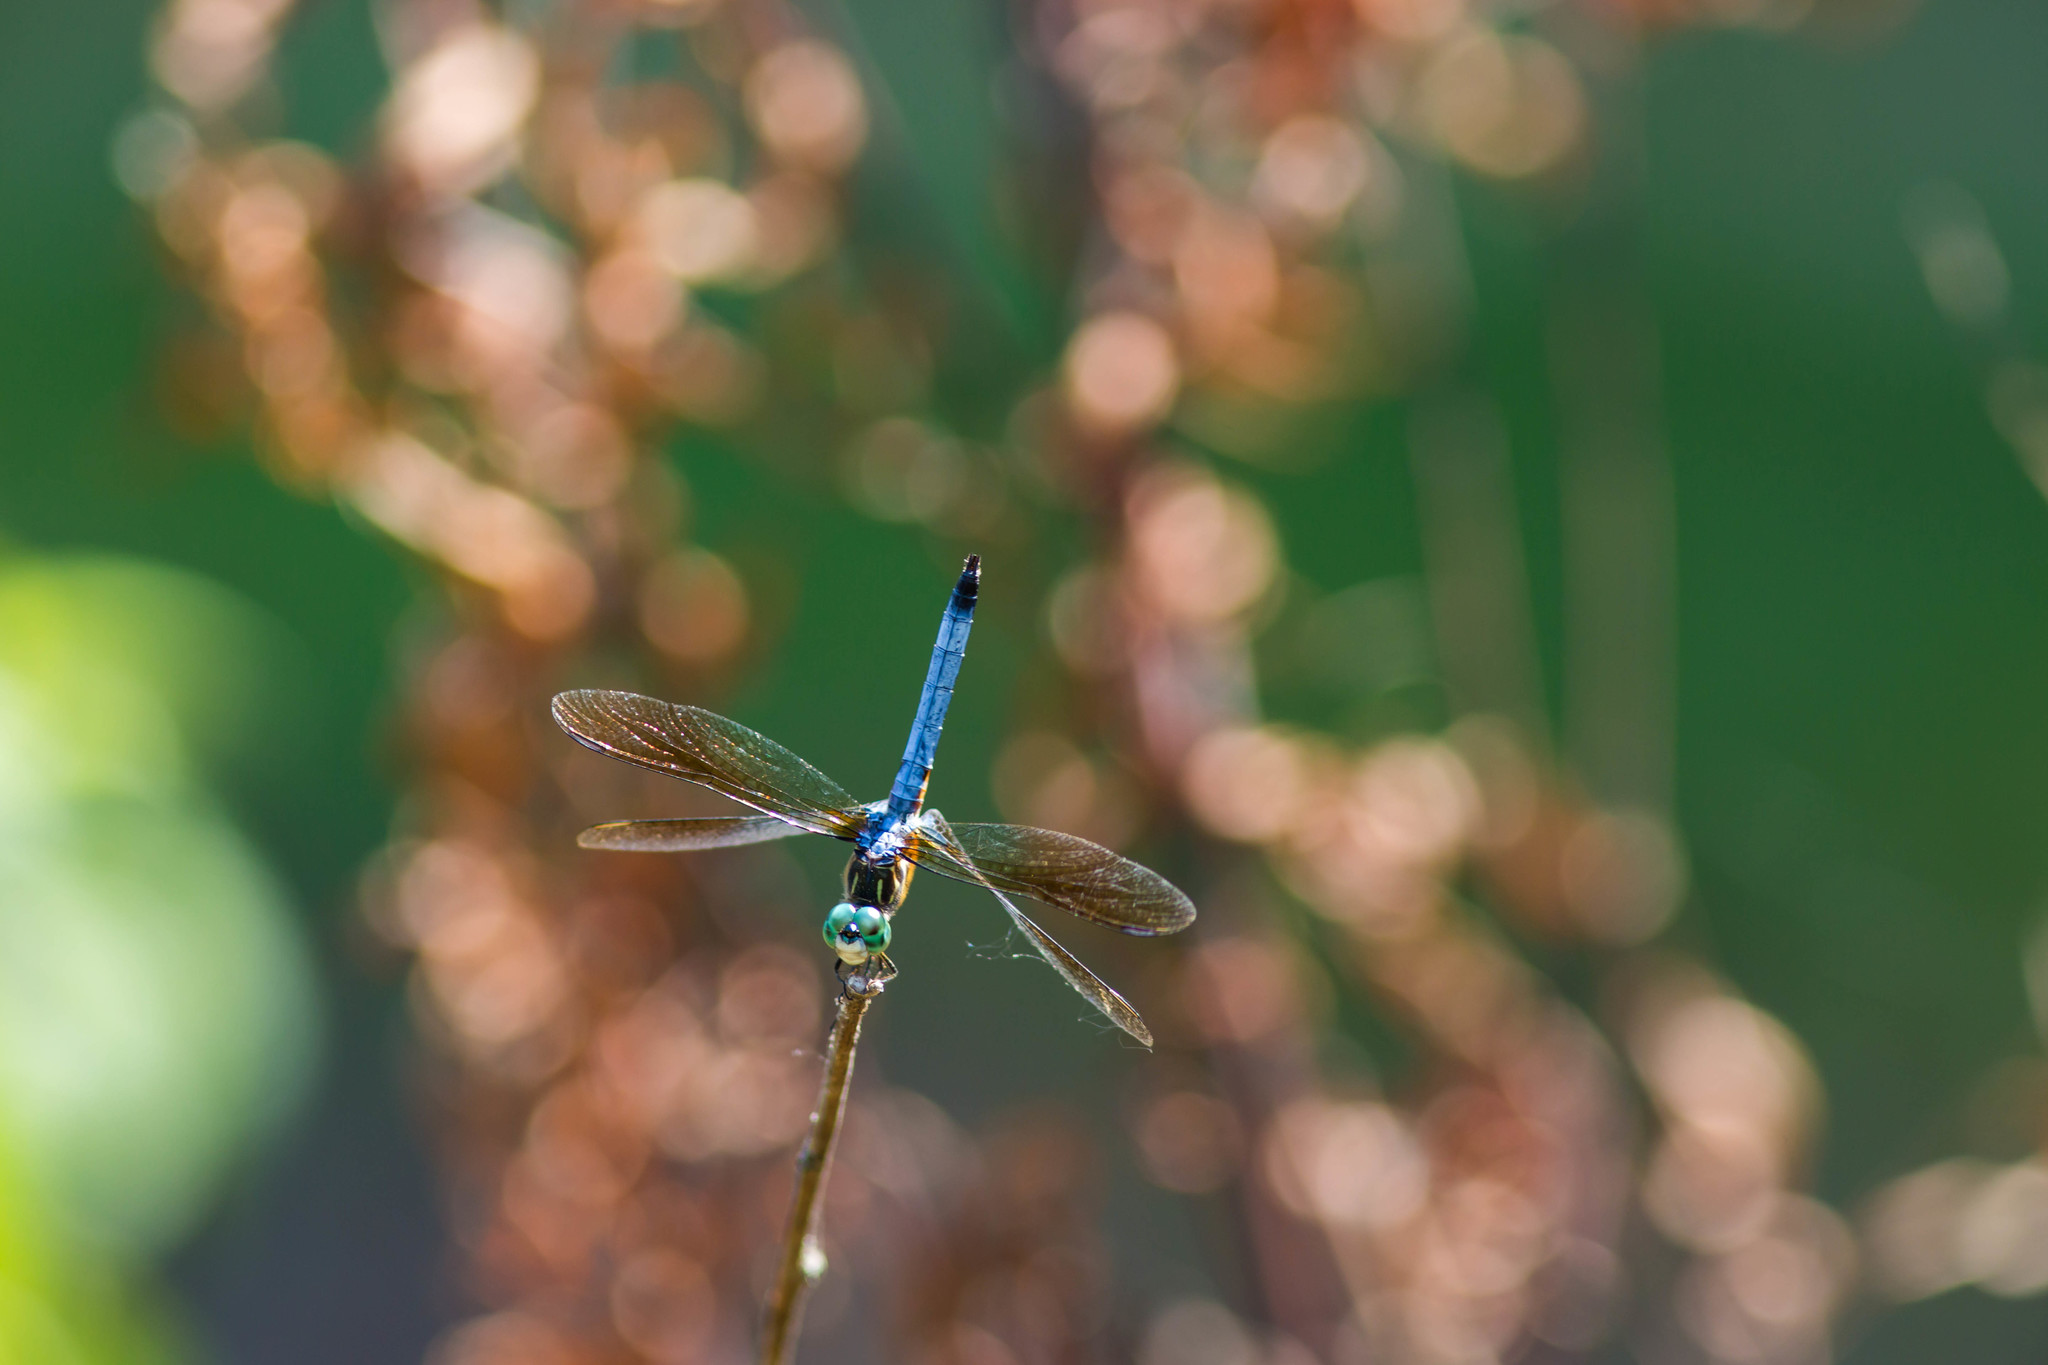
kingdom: Animalia
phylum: Arthropoda
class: Insecta
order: Odonata
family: Libellulidae
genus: Pachydiplax
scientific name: Pachydiplax longipennis
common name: Blue dasher
